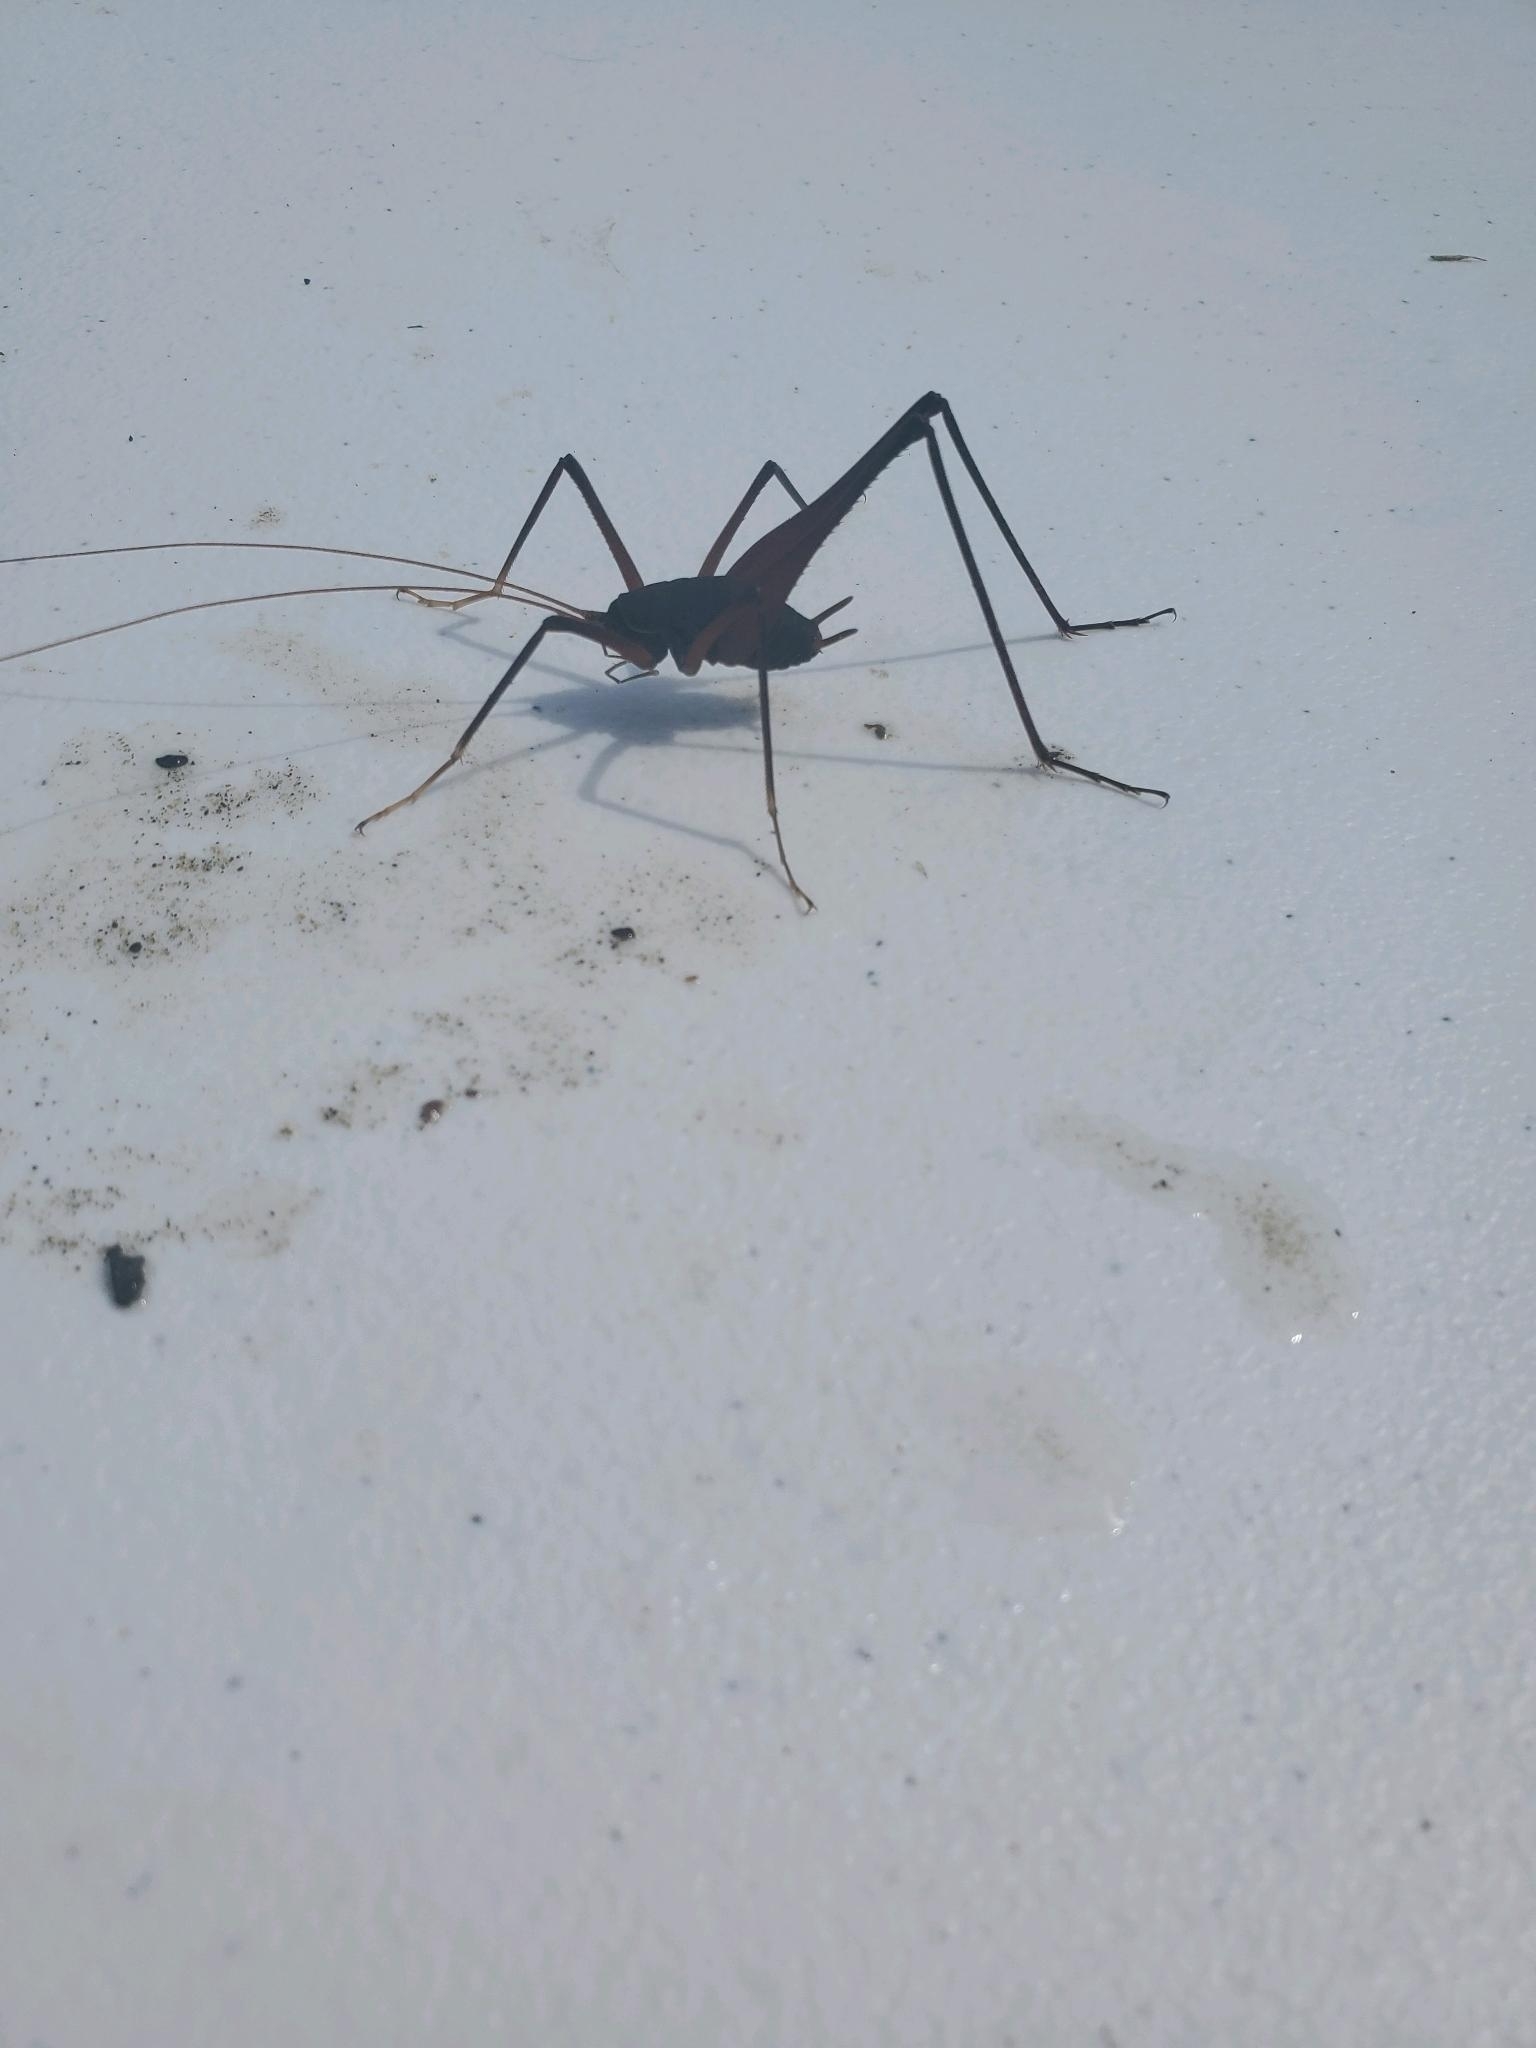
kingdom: Animalia
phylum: Arthropoda
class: Insecta
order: Orthoptera
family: Rhaphidophoridae
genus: Tropidischia
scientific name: Tropidischia xanthostoma
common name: Square-legged camel cricket
